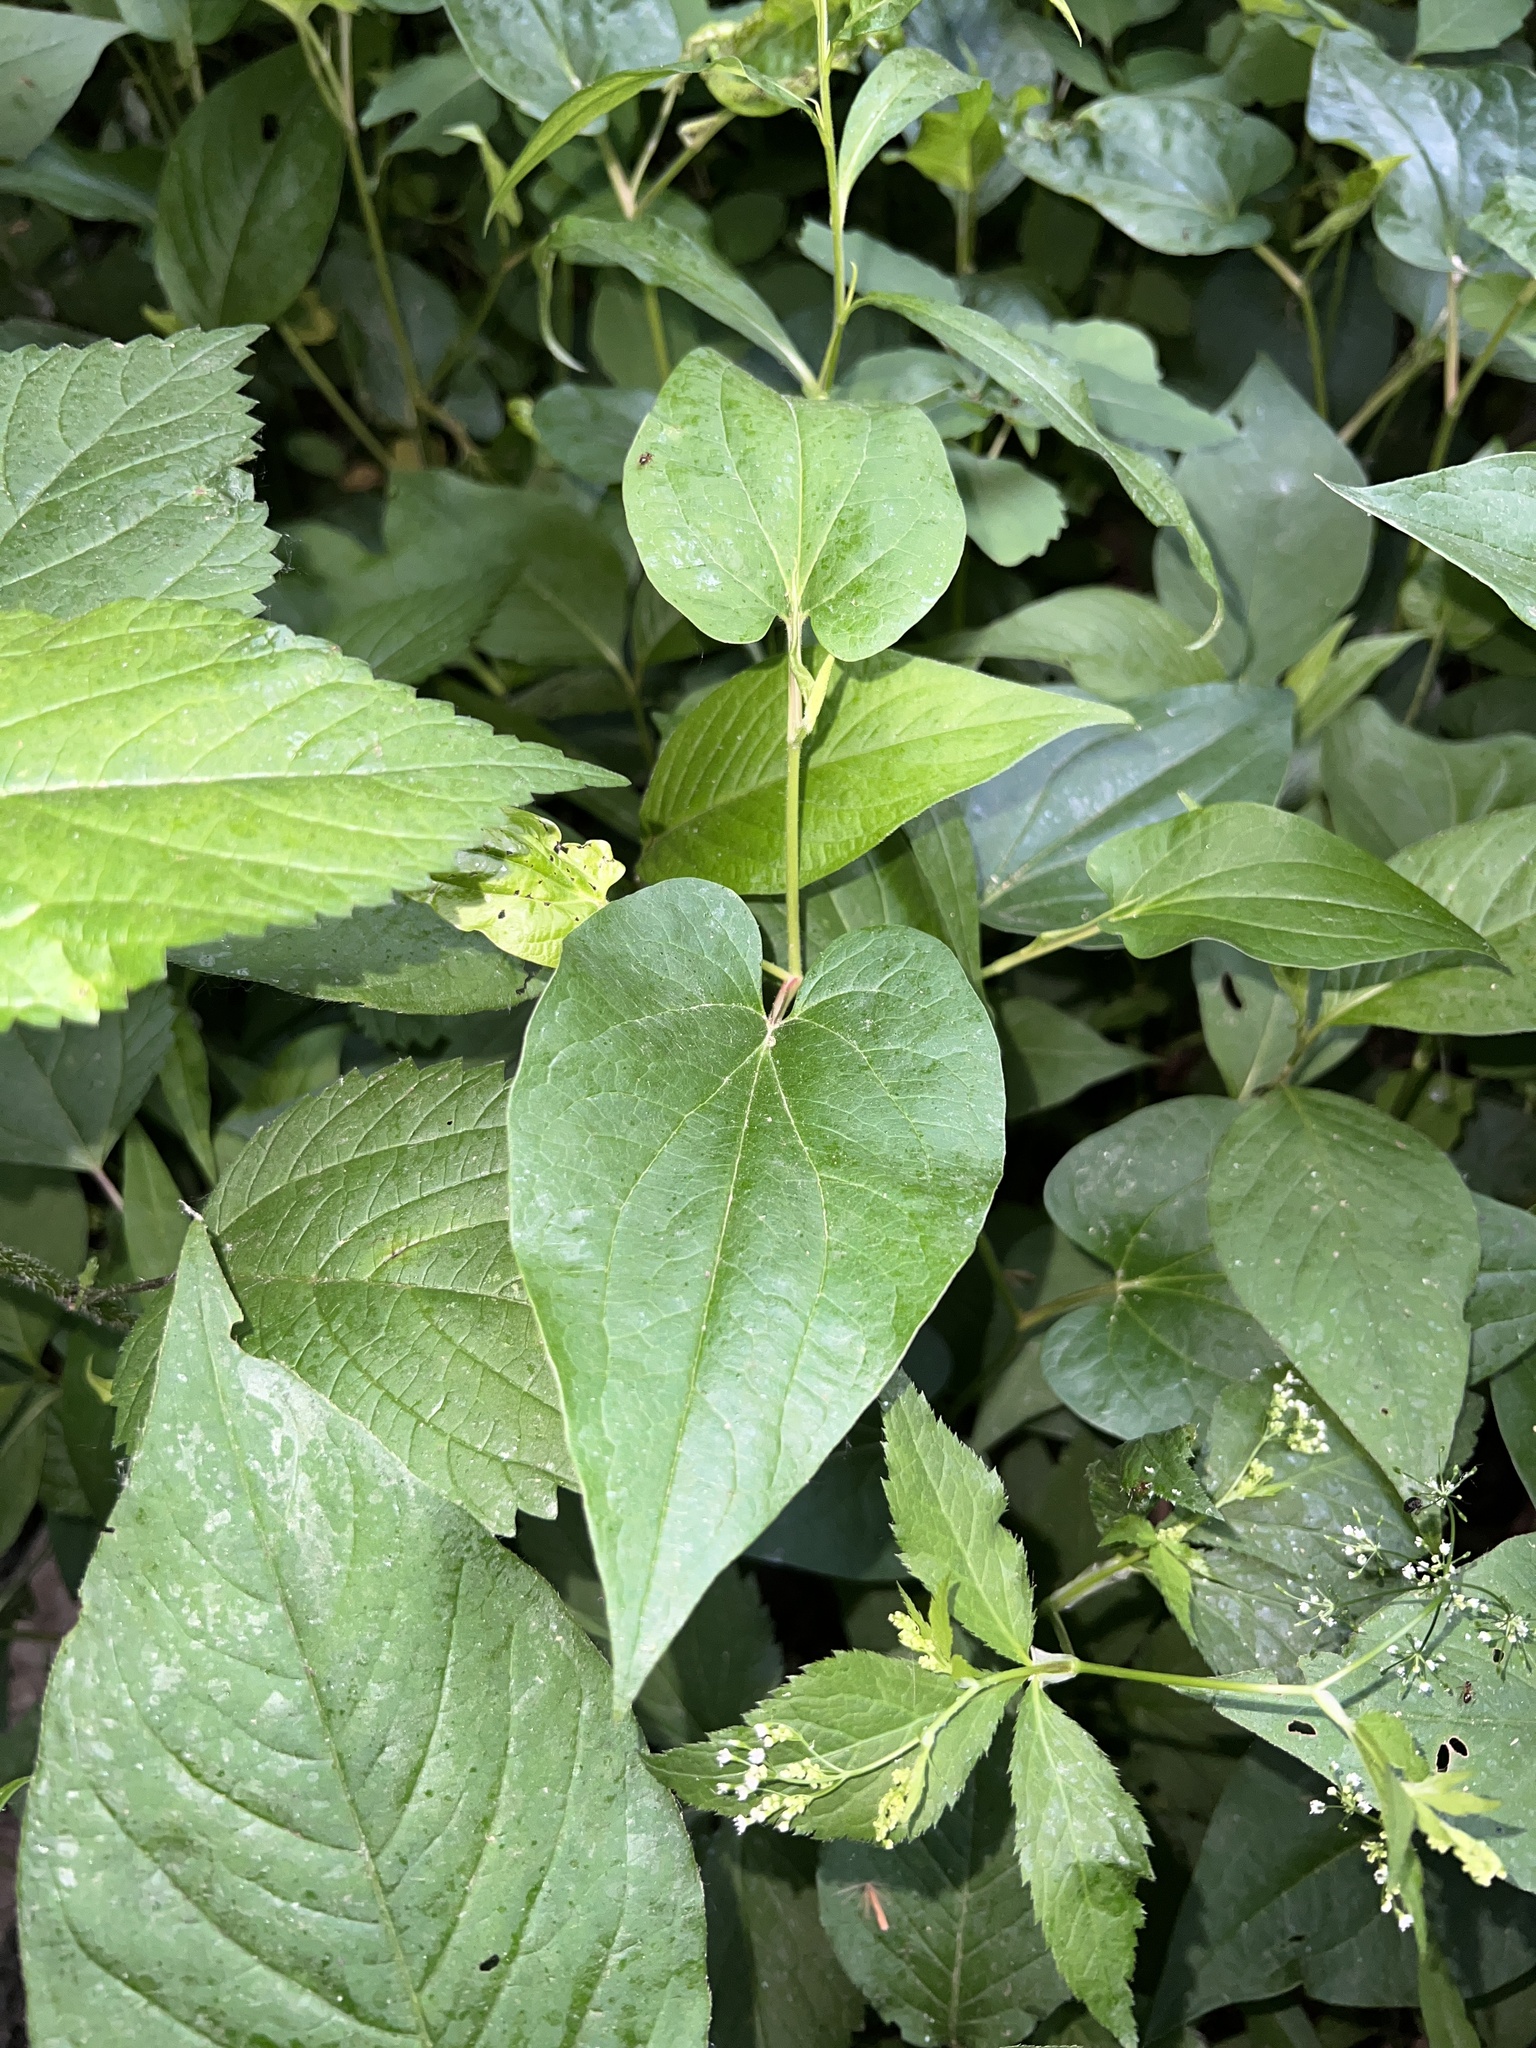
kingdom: Plantae
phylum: Tracheophyta
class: Magnoliopsida
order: Piperales
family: Saururaceae
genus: Saururus
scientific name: Saururus cernuus
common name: Lizard's-tail
